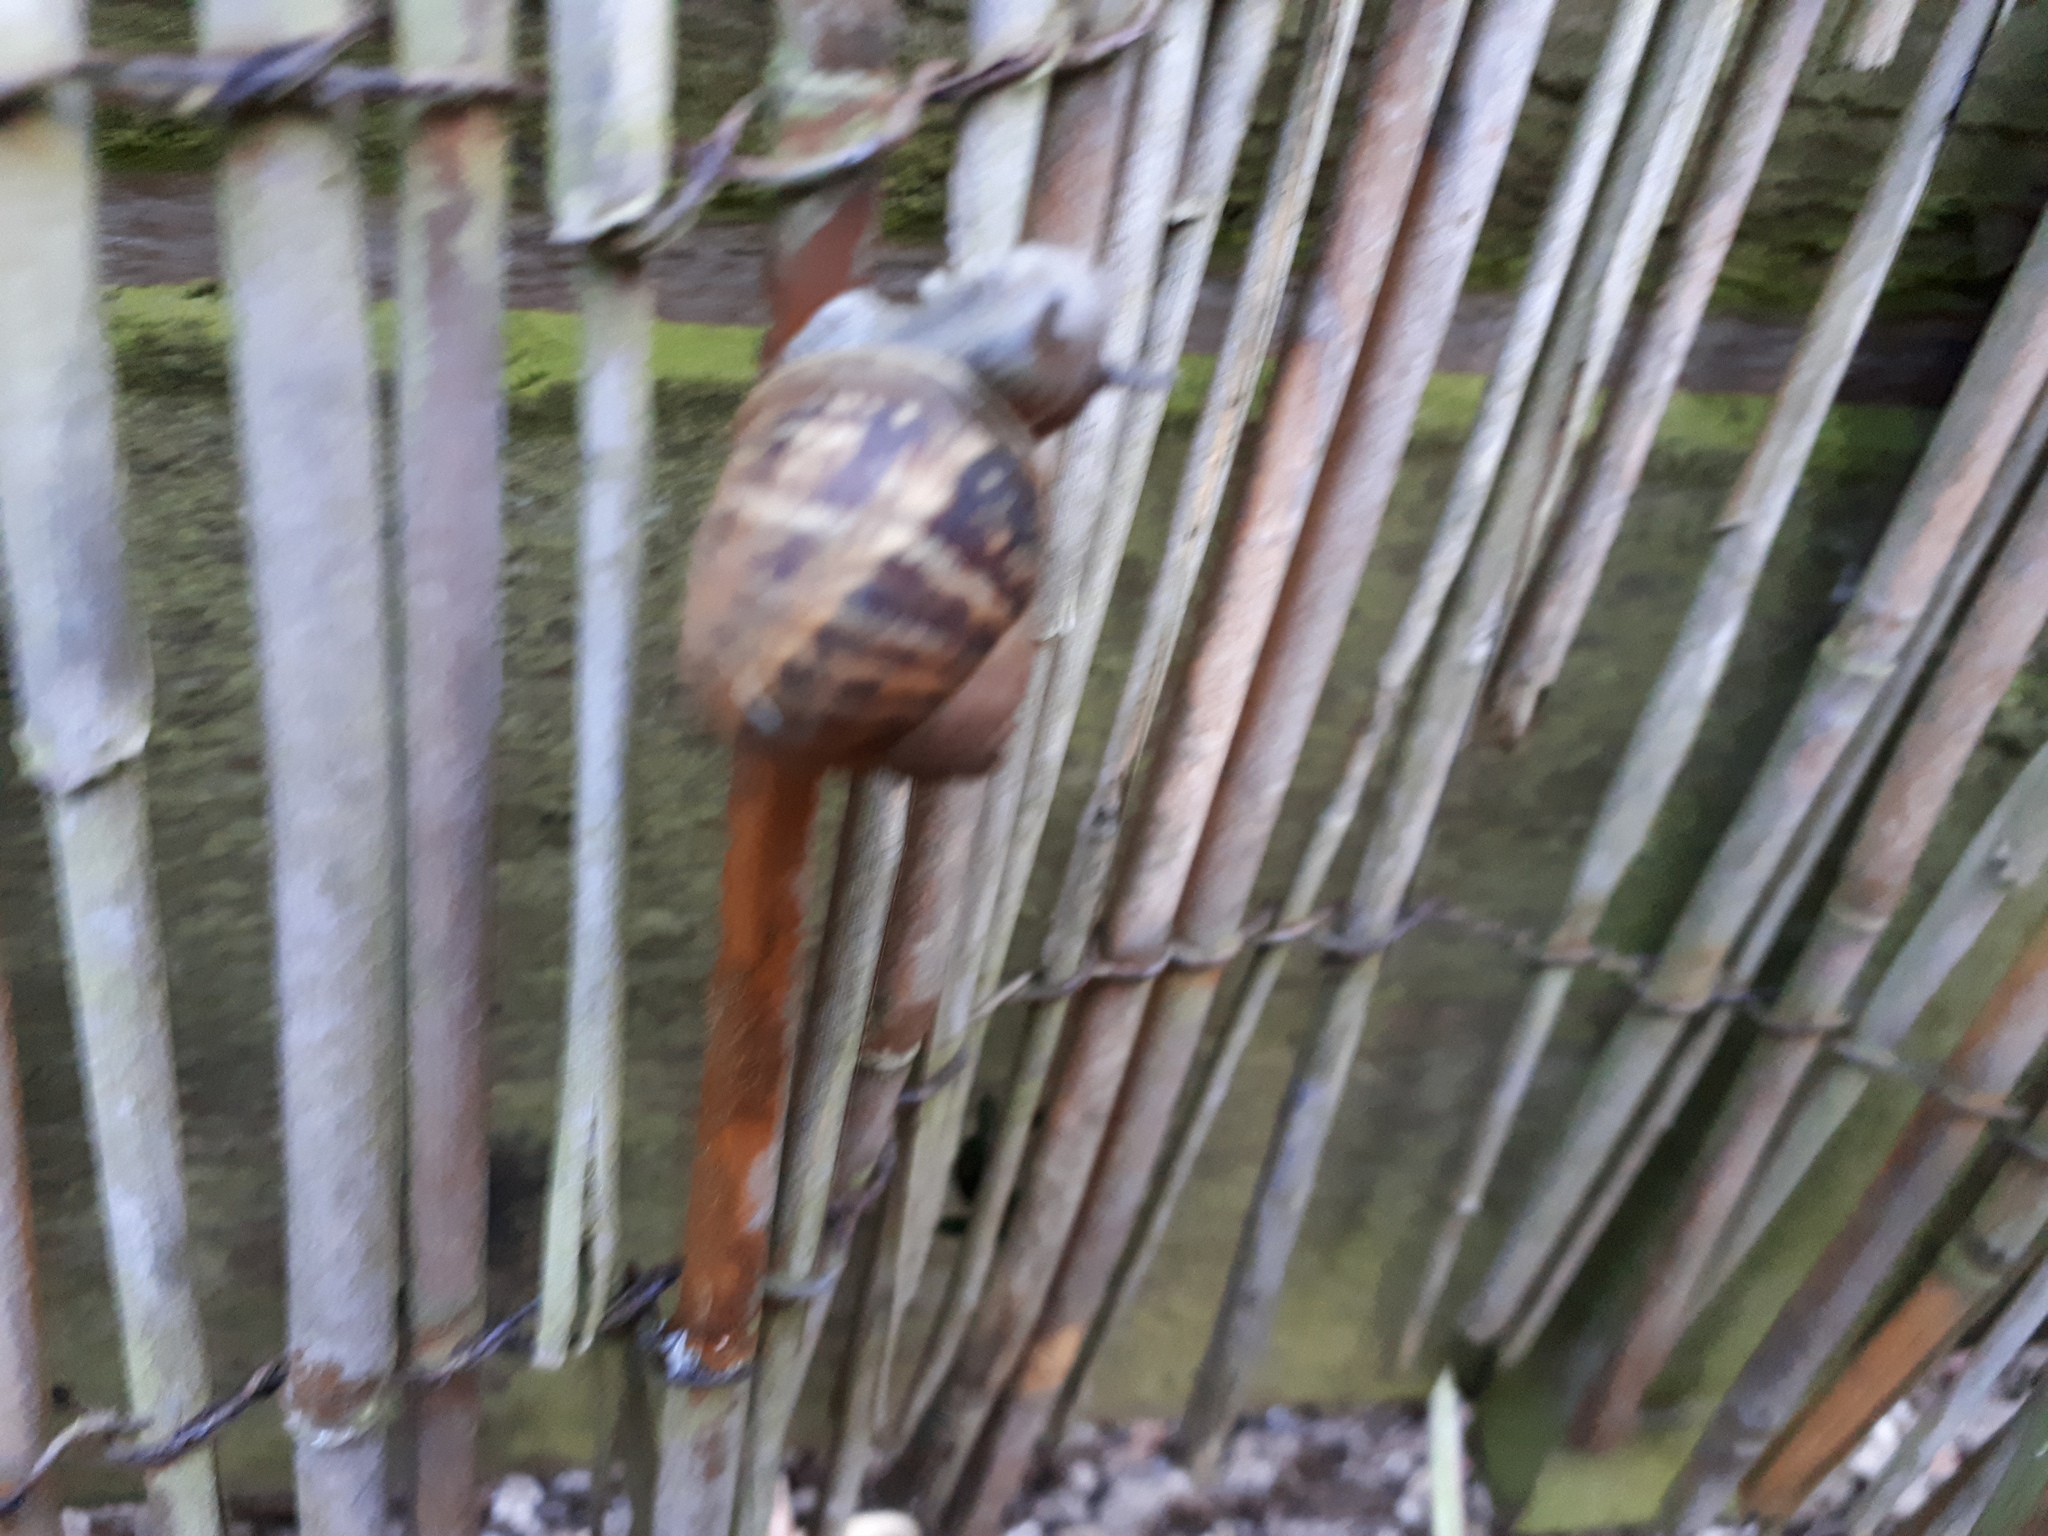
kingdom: Animalia
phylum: Mollusca
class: Gastropoda
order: Stylommatophora
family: Helicidae
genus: Cornu
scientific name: Cornu aspersum
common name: Brown garden snail
